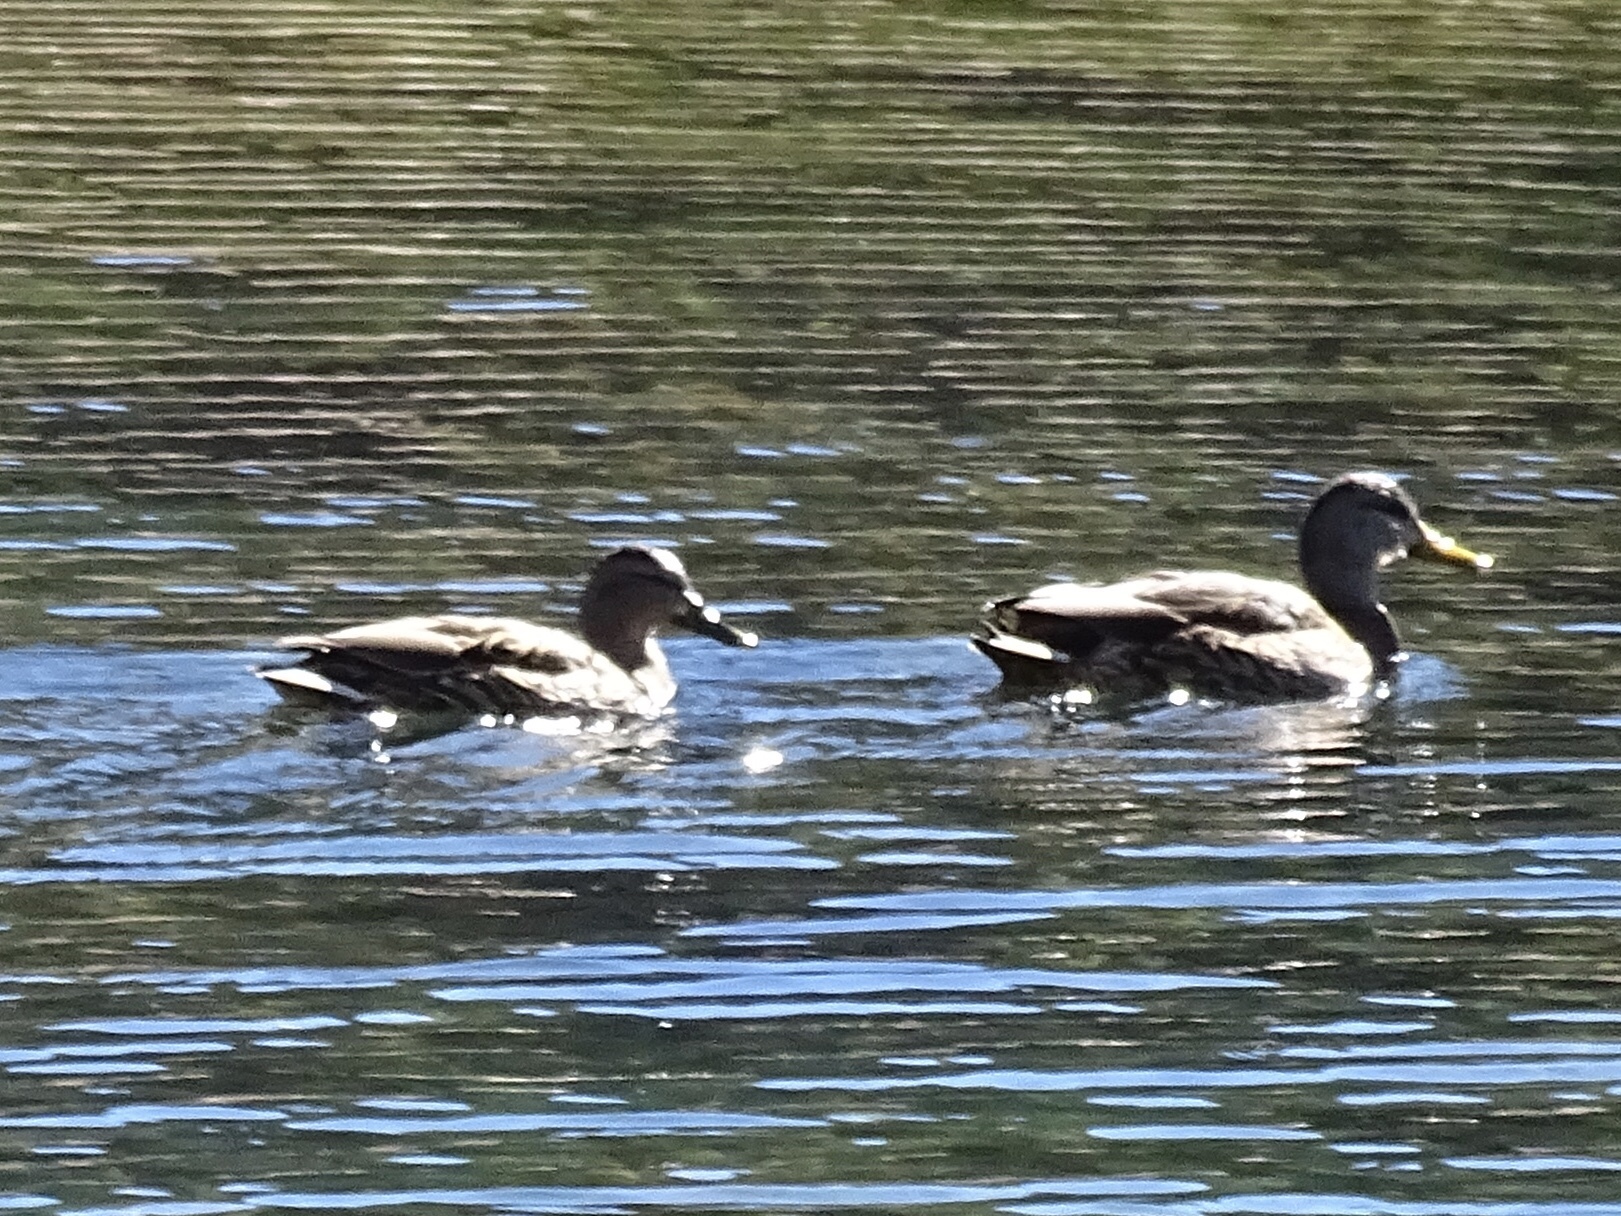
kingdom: Animalia
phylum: Chordata
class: Aves
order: Anseriformes
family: Anatidae
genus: Anas
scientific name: Anas
